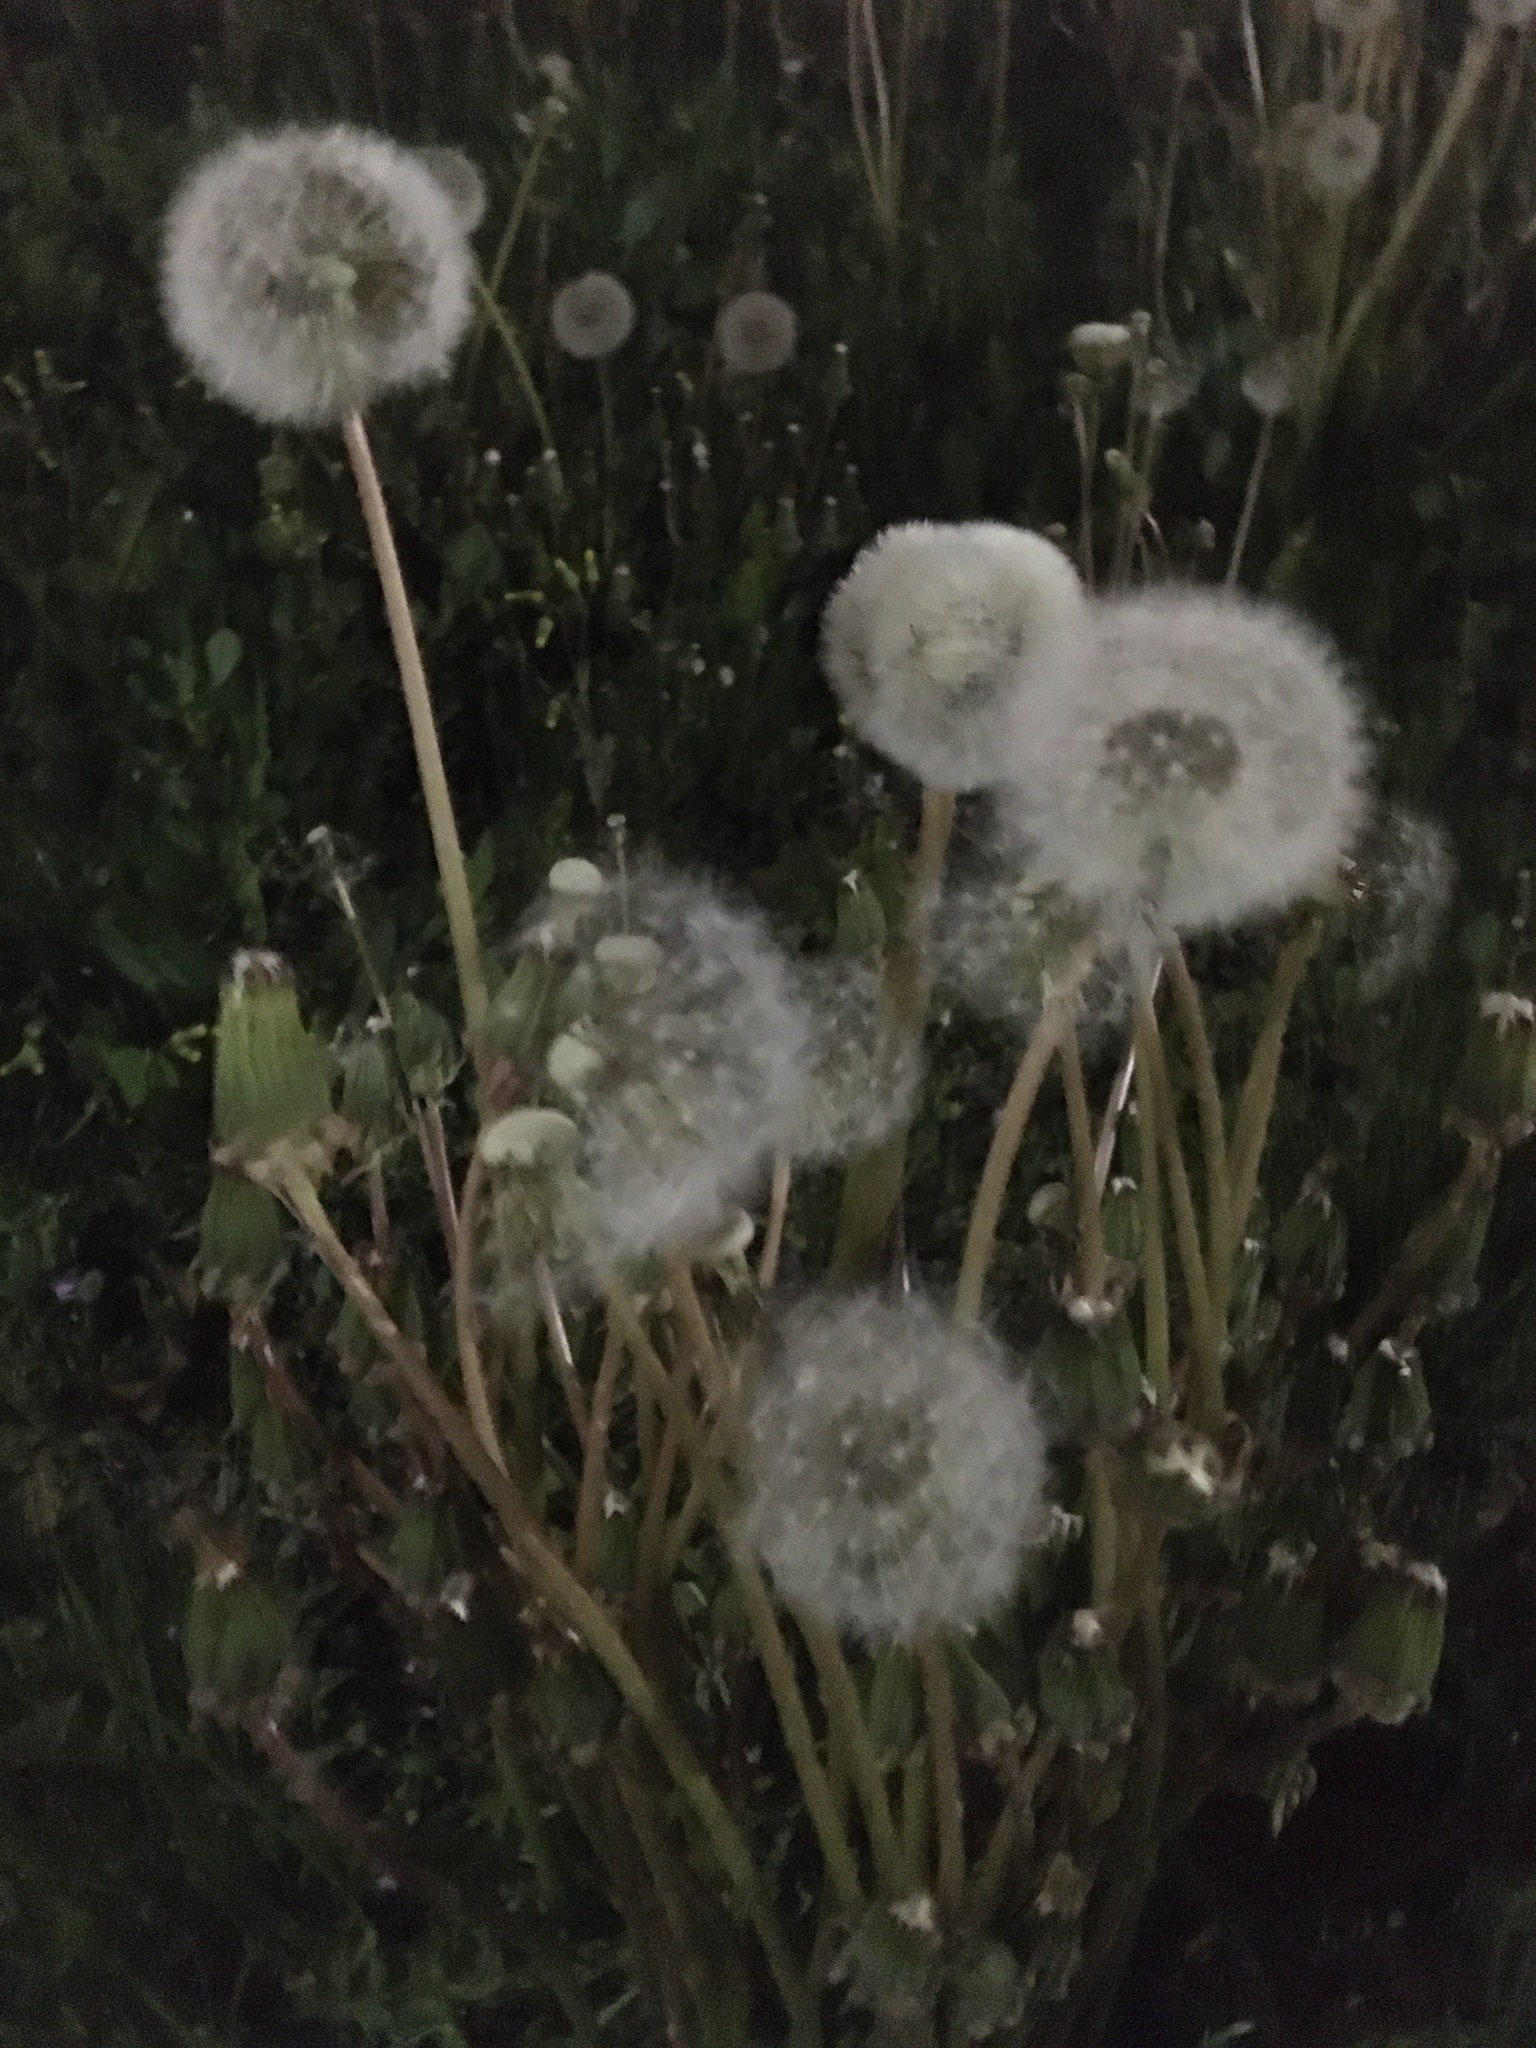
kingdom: Plantae
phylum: Tracheophyta
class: Magnoliopsida
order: Asterales
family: Asteraceae
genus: Taraxacum
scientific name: Taraxacum officinale
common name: Common dandelion
